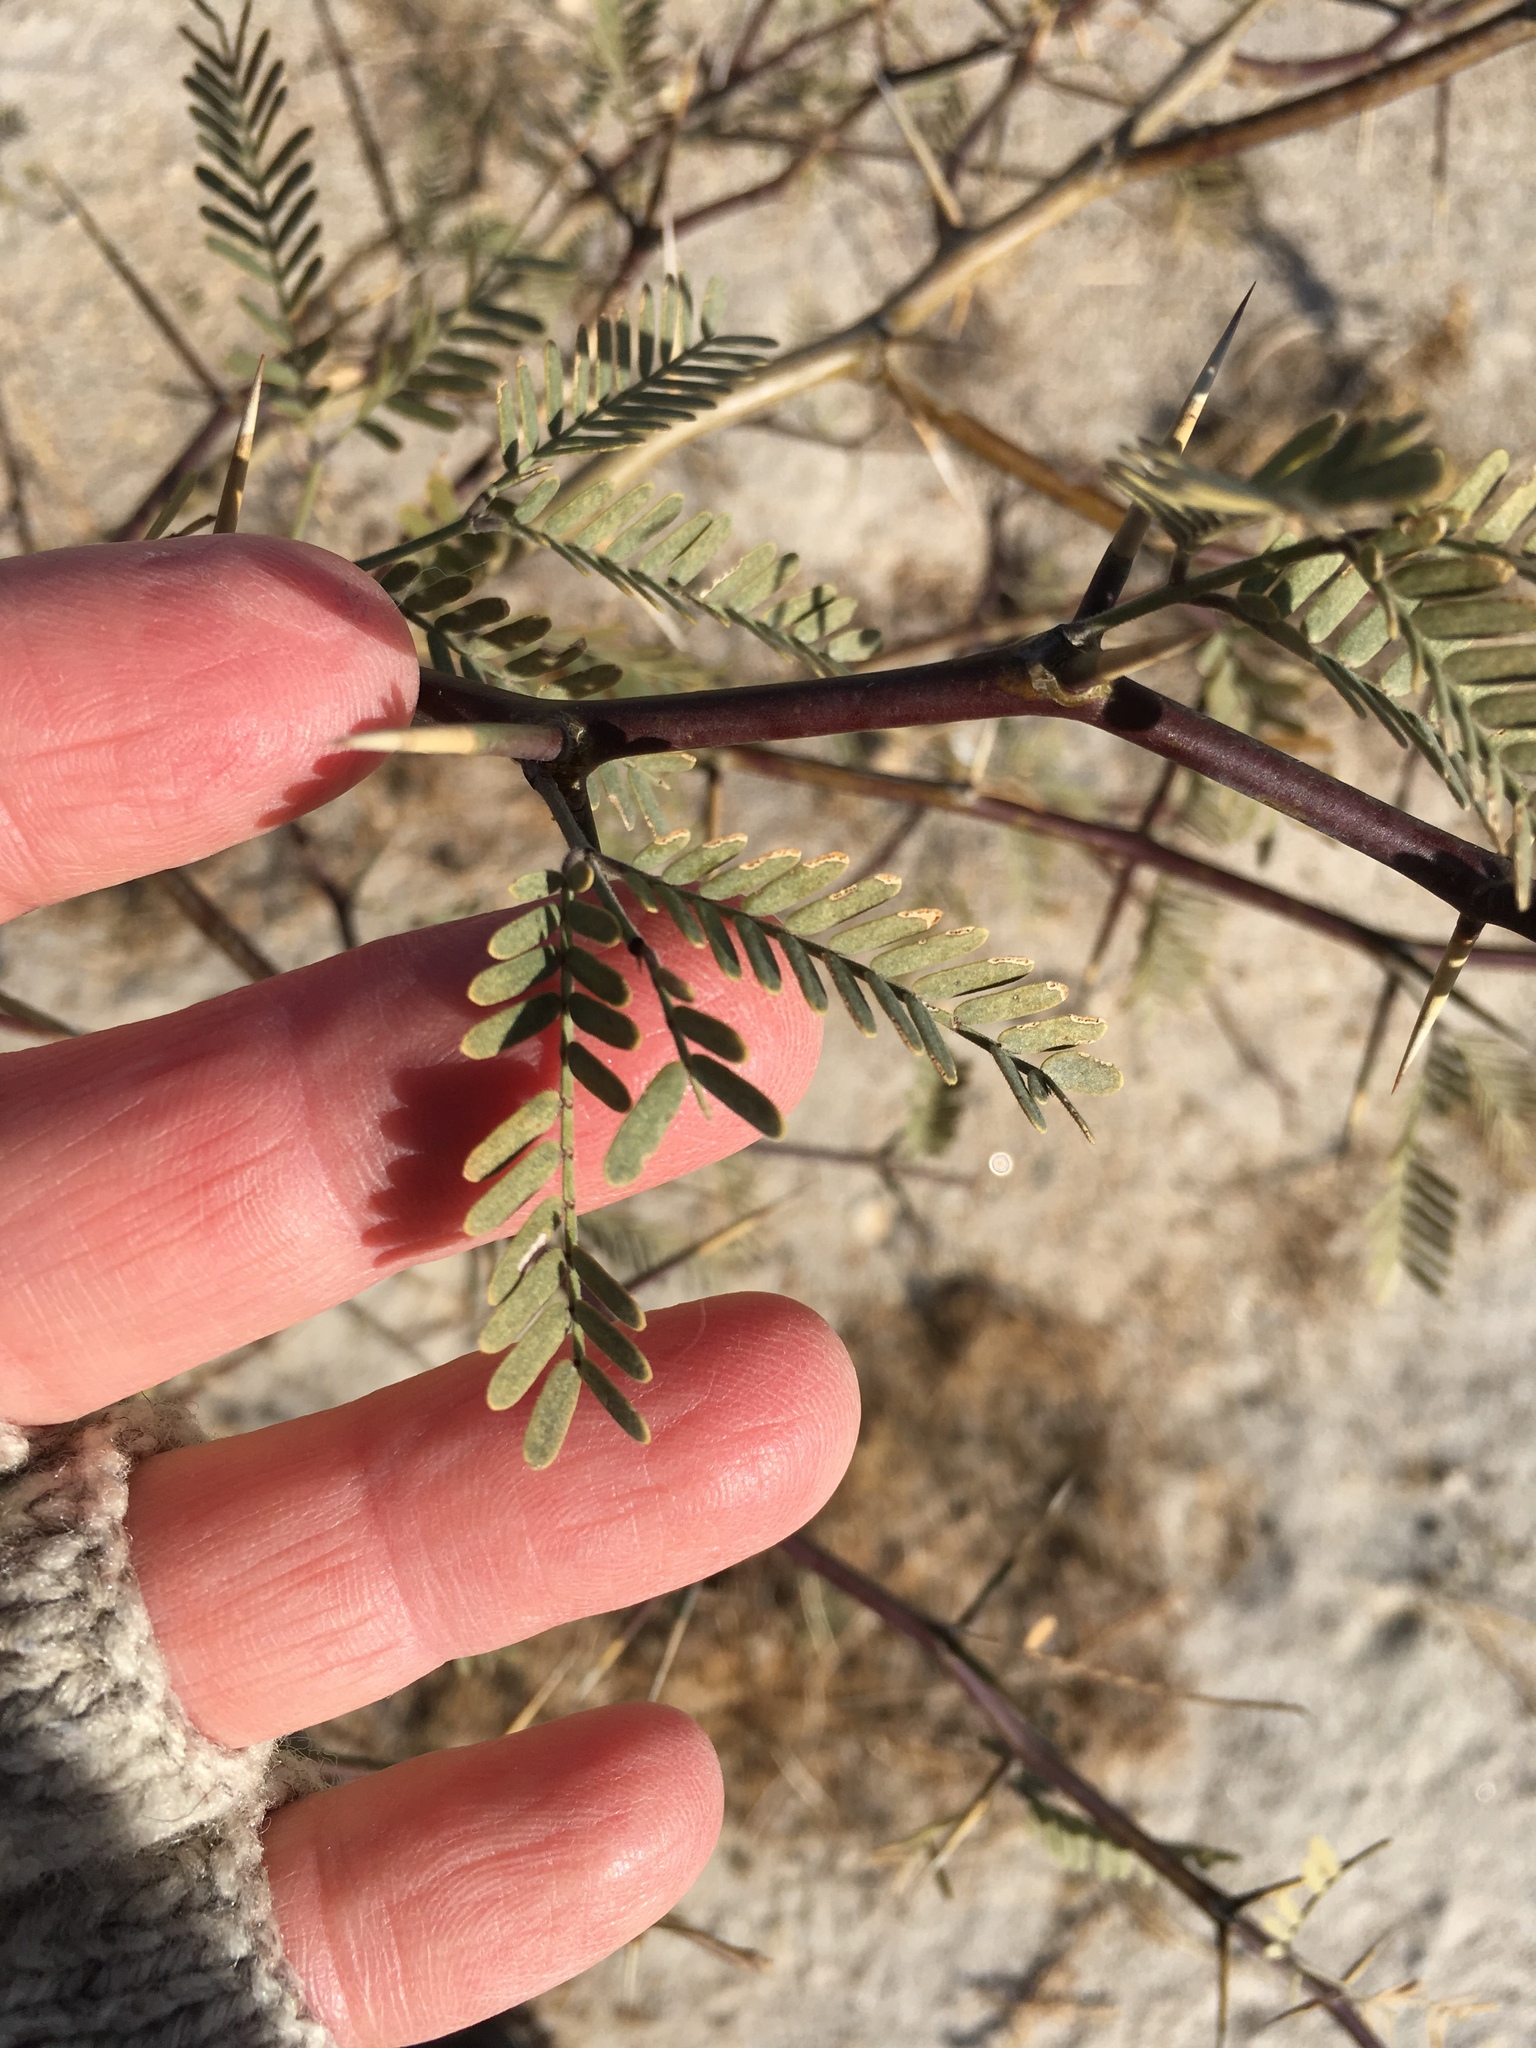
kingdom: Plantae
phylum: Tracheophyta
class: Magnoliopsida
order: Fabales
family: Fabaceae
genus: Prosopis
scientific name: Prosopis pubescens
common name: Screw-bean
